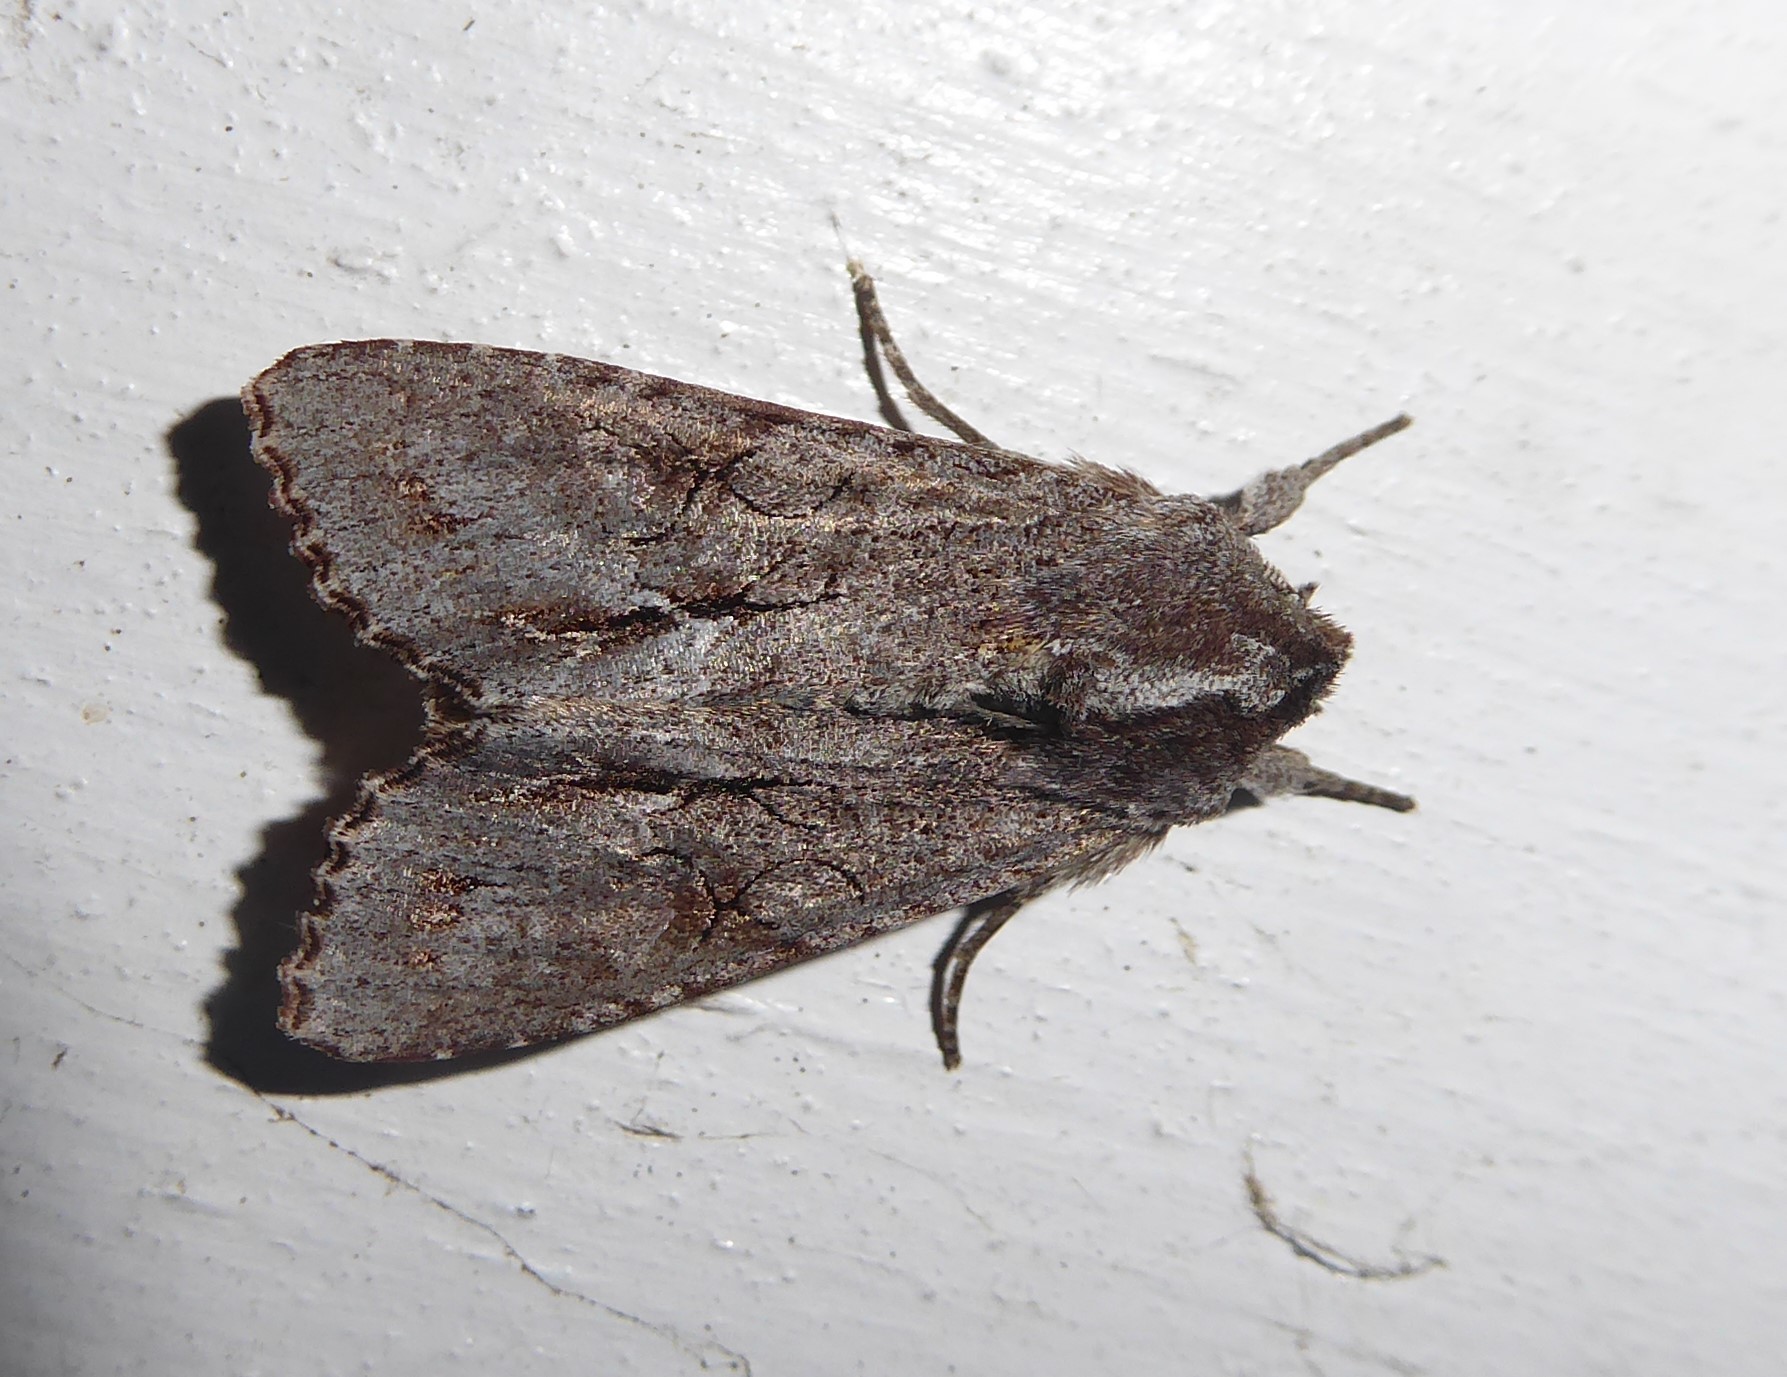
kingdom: Animalia
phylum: Arthropoda
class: Insecta
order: Lepidoptera
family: Noctuidae
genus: Ichneutica
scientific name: Ichneutica
